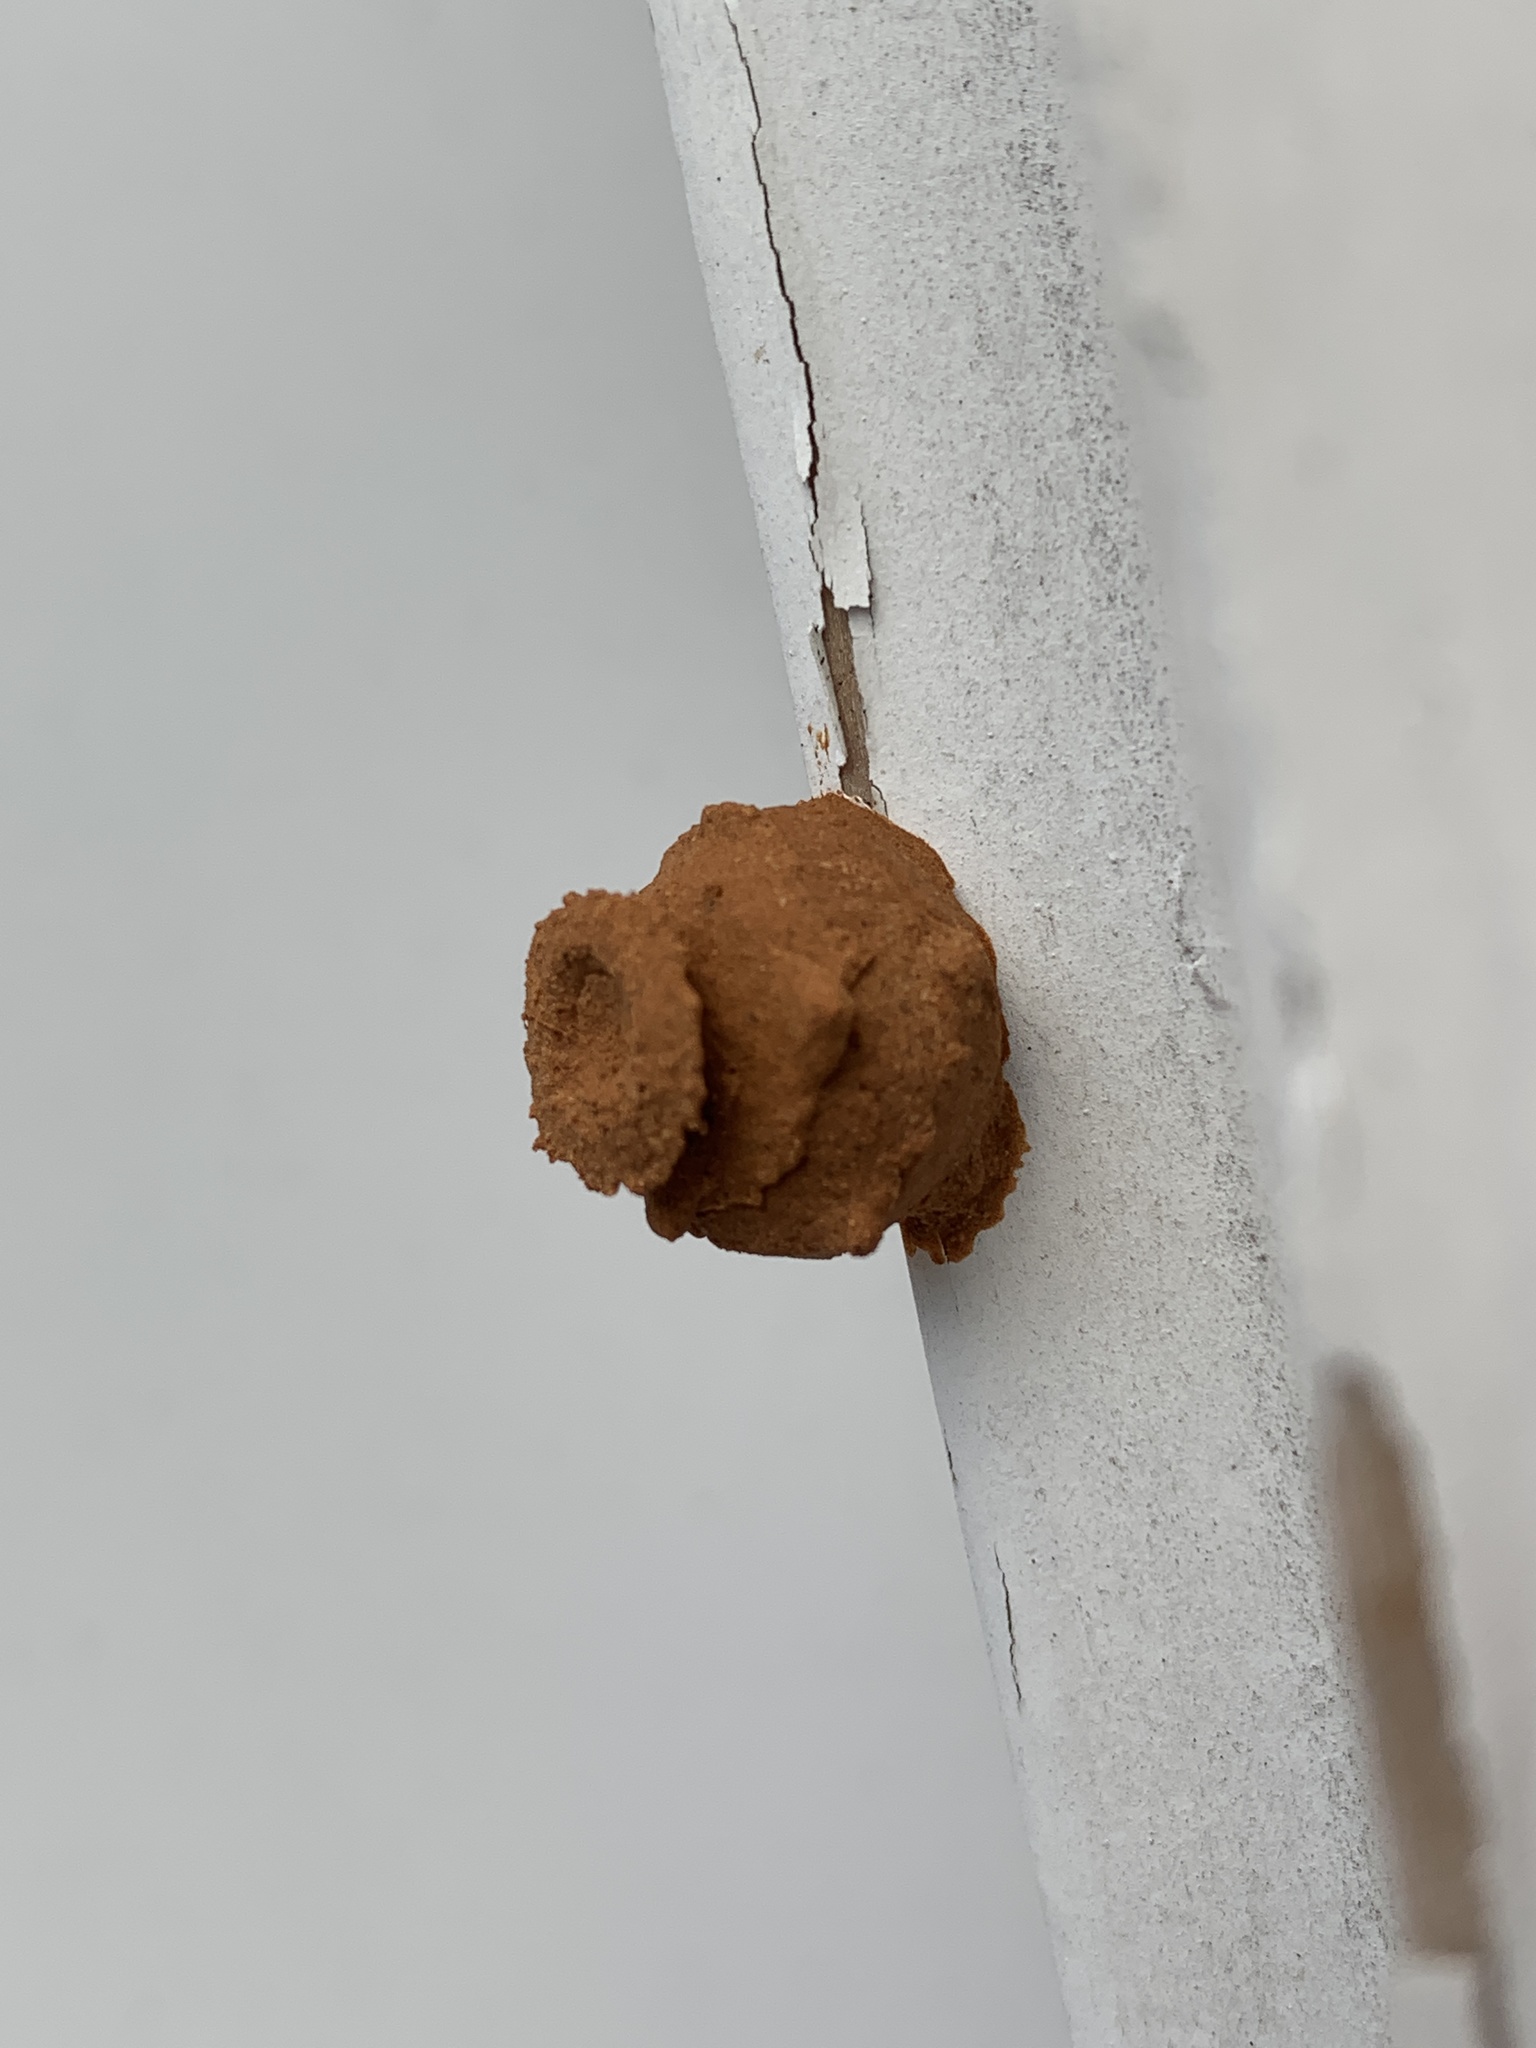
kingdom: Animalia
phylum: Arthropoda
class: Insecta
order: Hymenoptera
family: Vespidae
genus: Eumenes
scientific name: Eumenes
